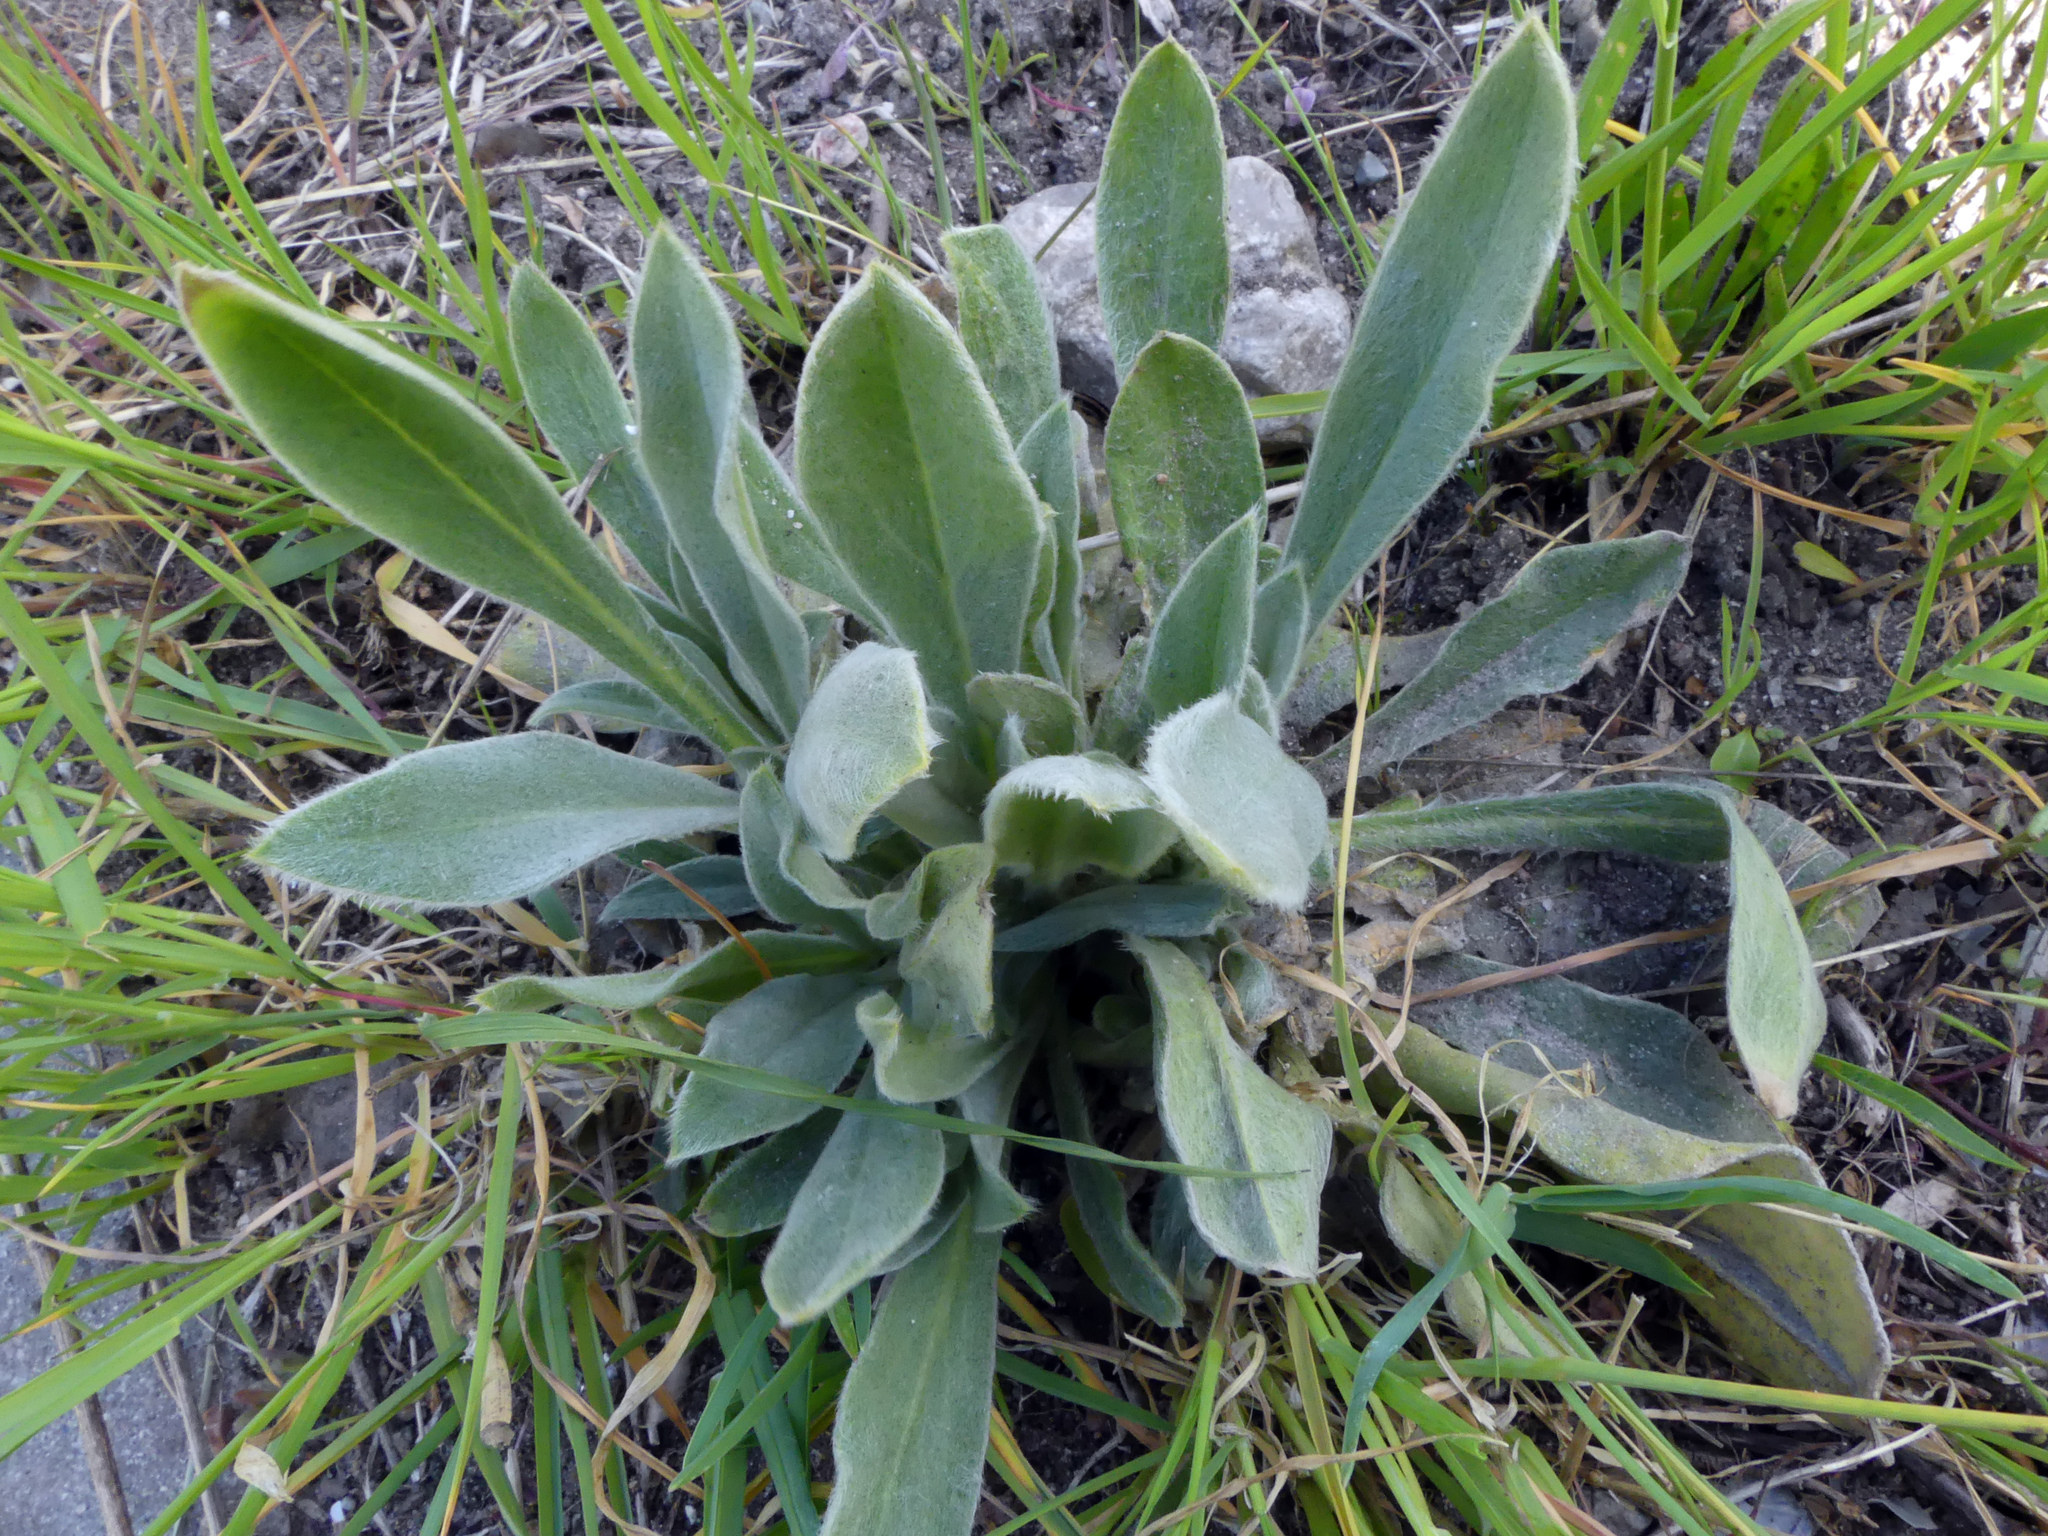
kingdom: Plantae
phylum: Tracheophyta
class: Magnoliopsida
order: Lamiales
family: Lamiaceae
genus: Stachys
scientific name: Stachys byzantina
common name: Lamb's-ear
